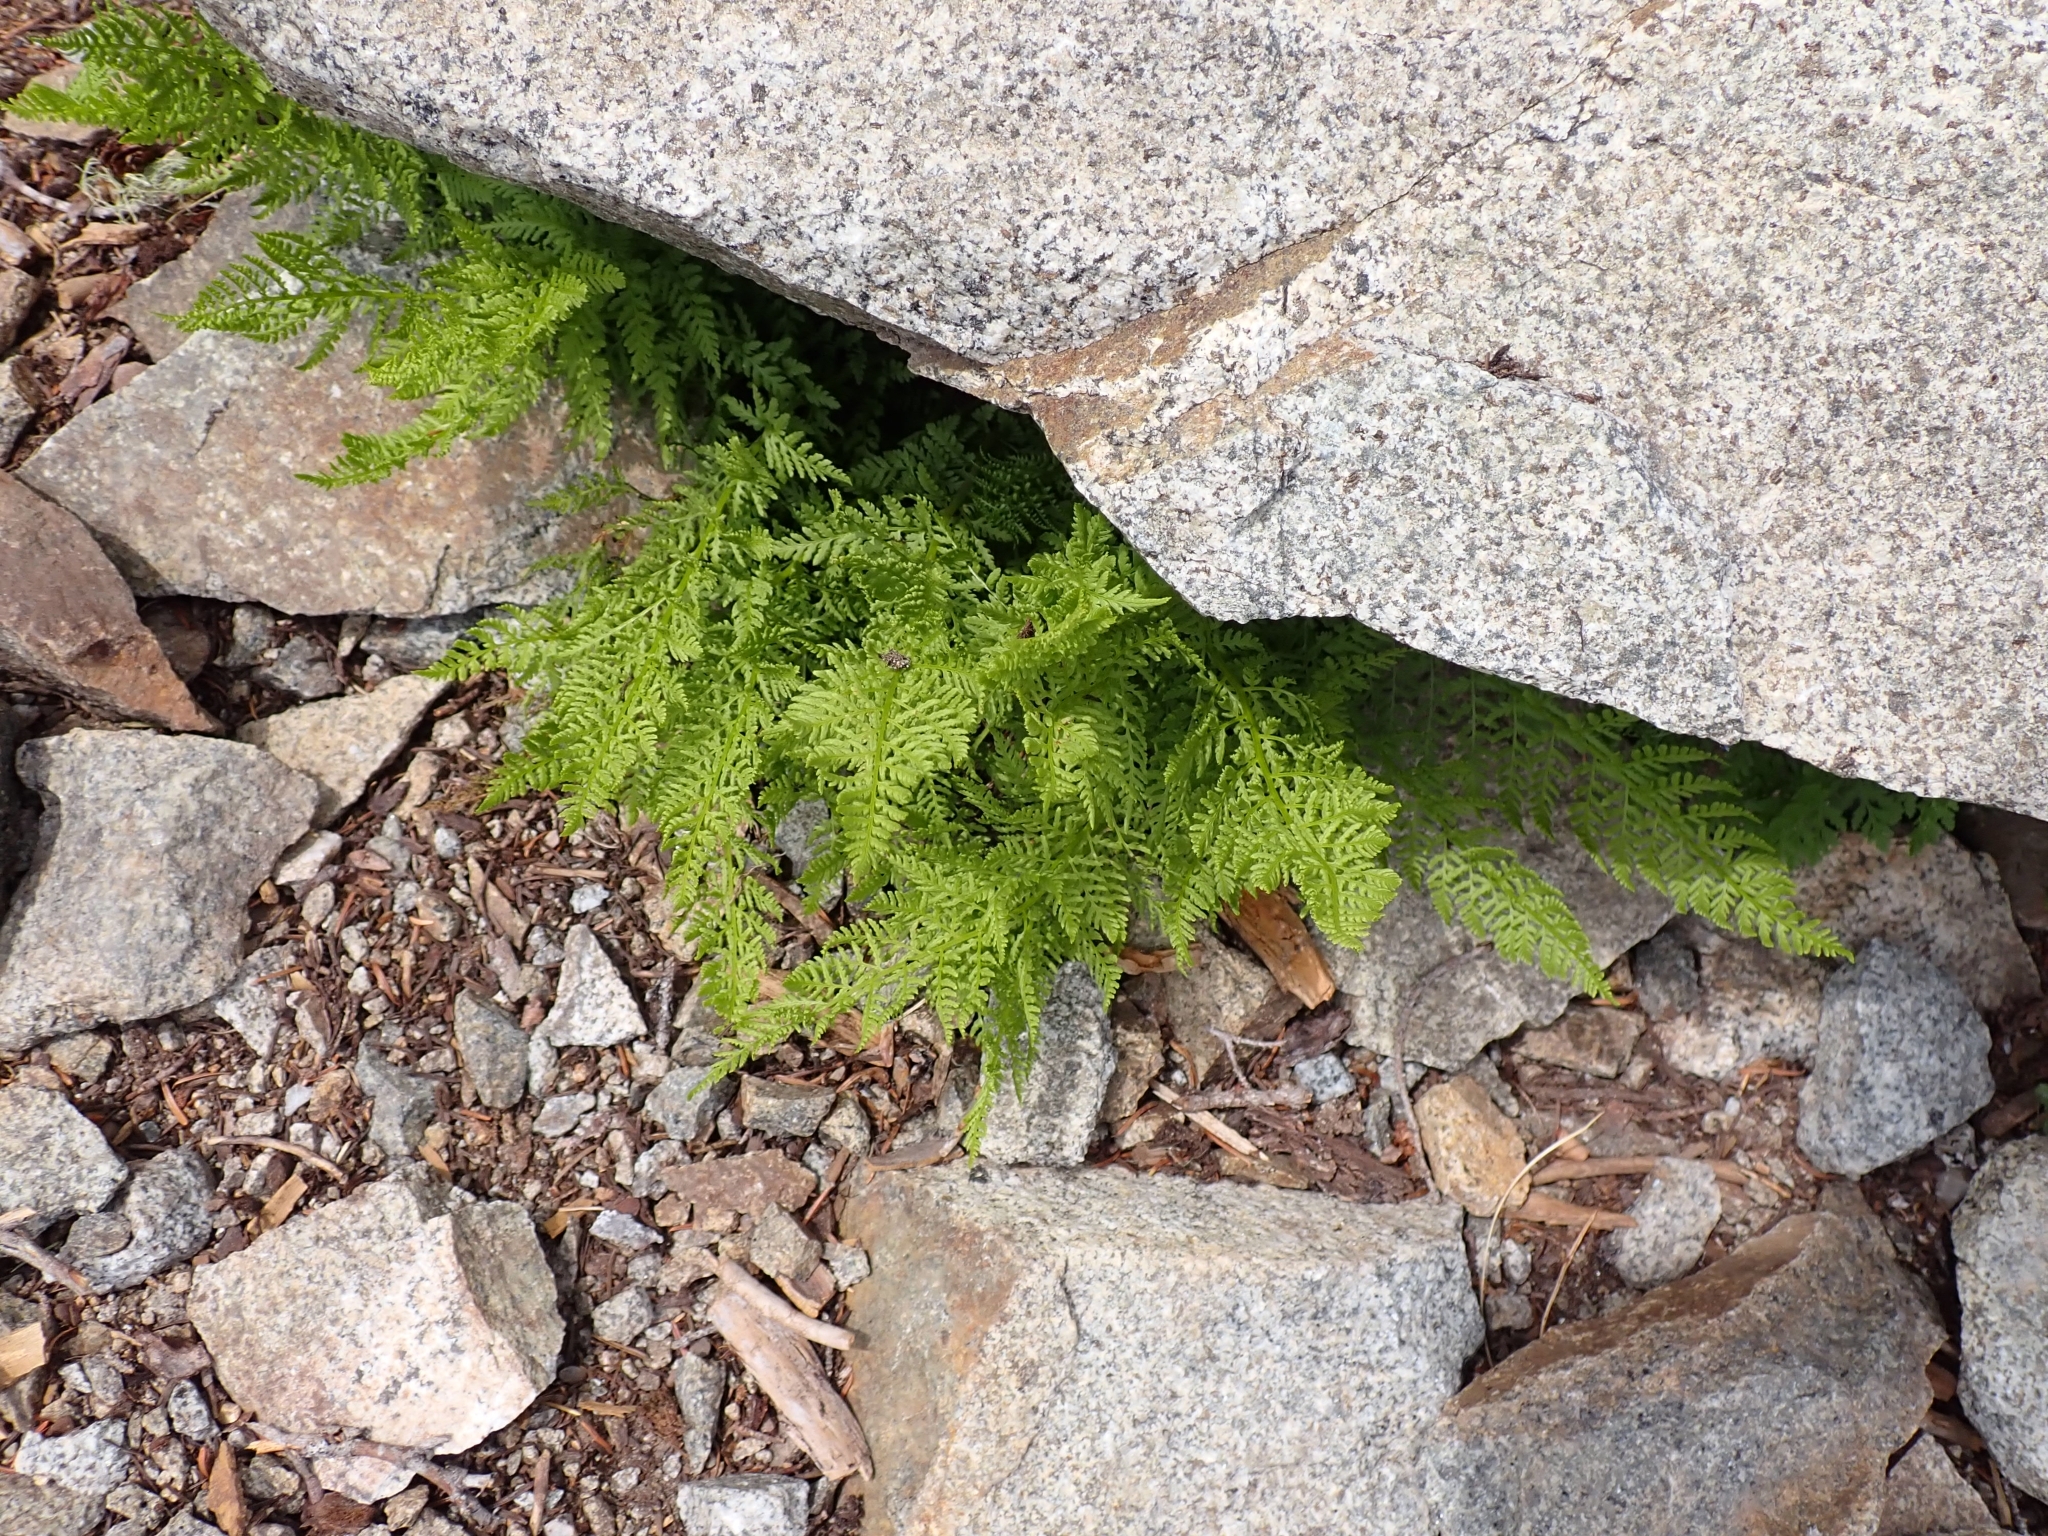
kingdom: Plantae
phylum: Tracheophyta
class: Polypodiopsida
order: Polypodiales
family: Athyriaceae
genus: Athyrium
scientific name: Athyrium americanum
